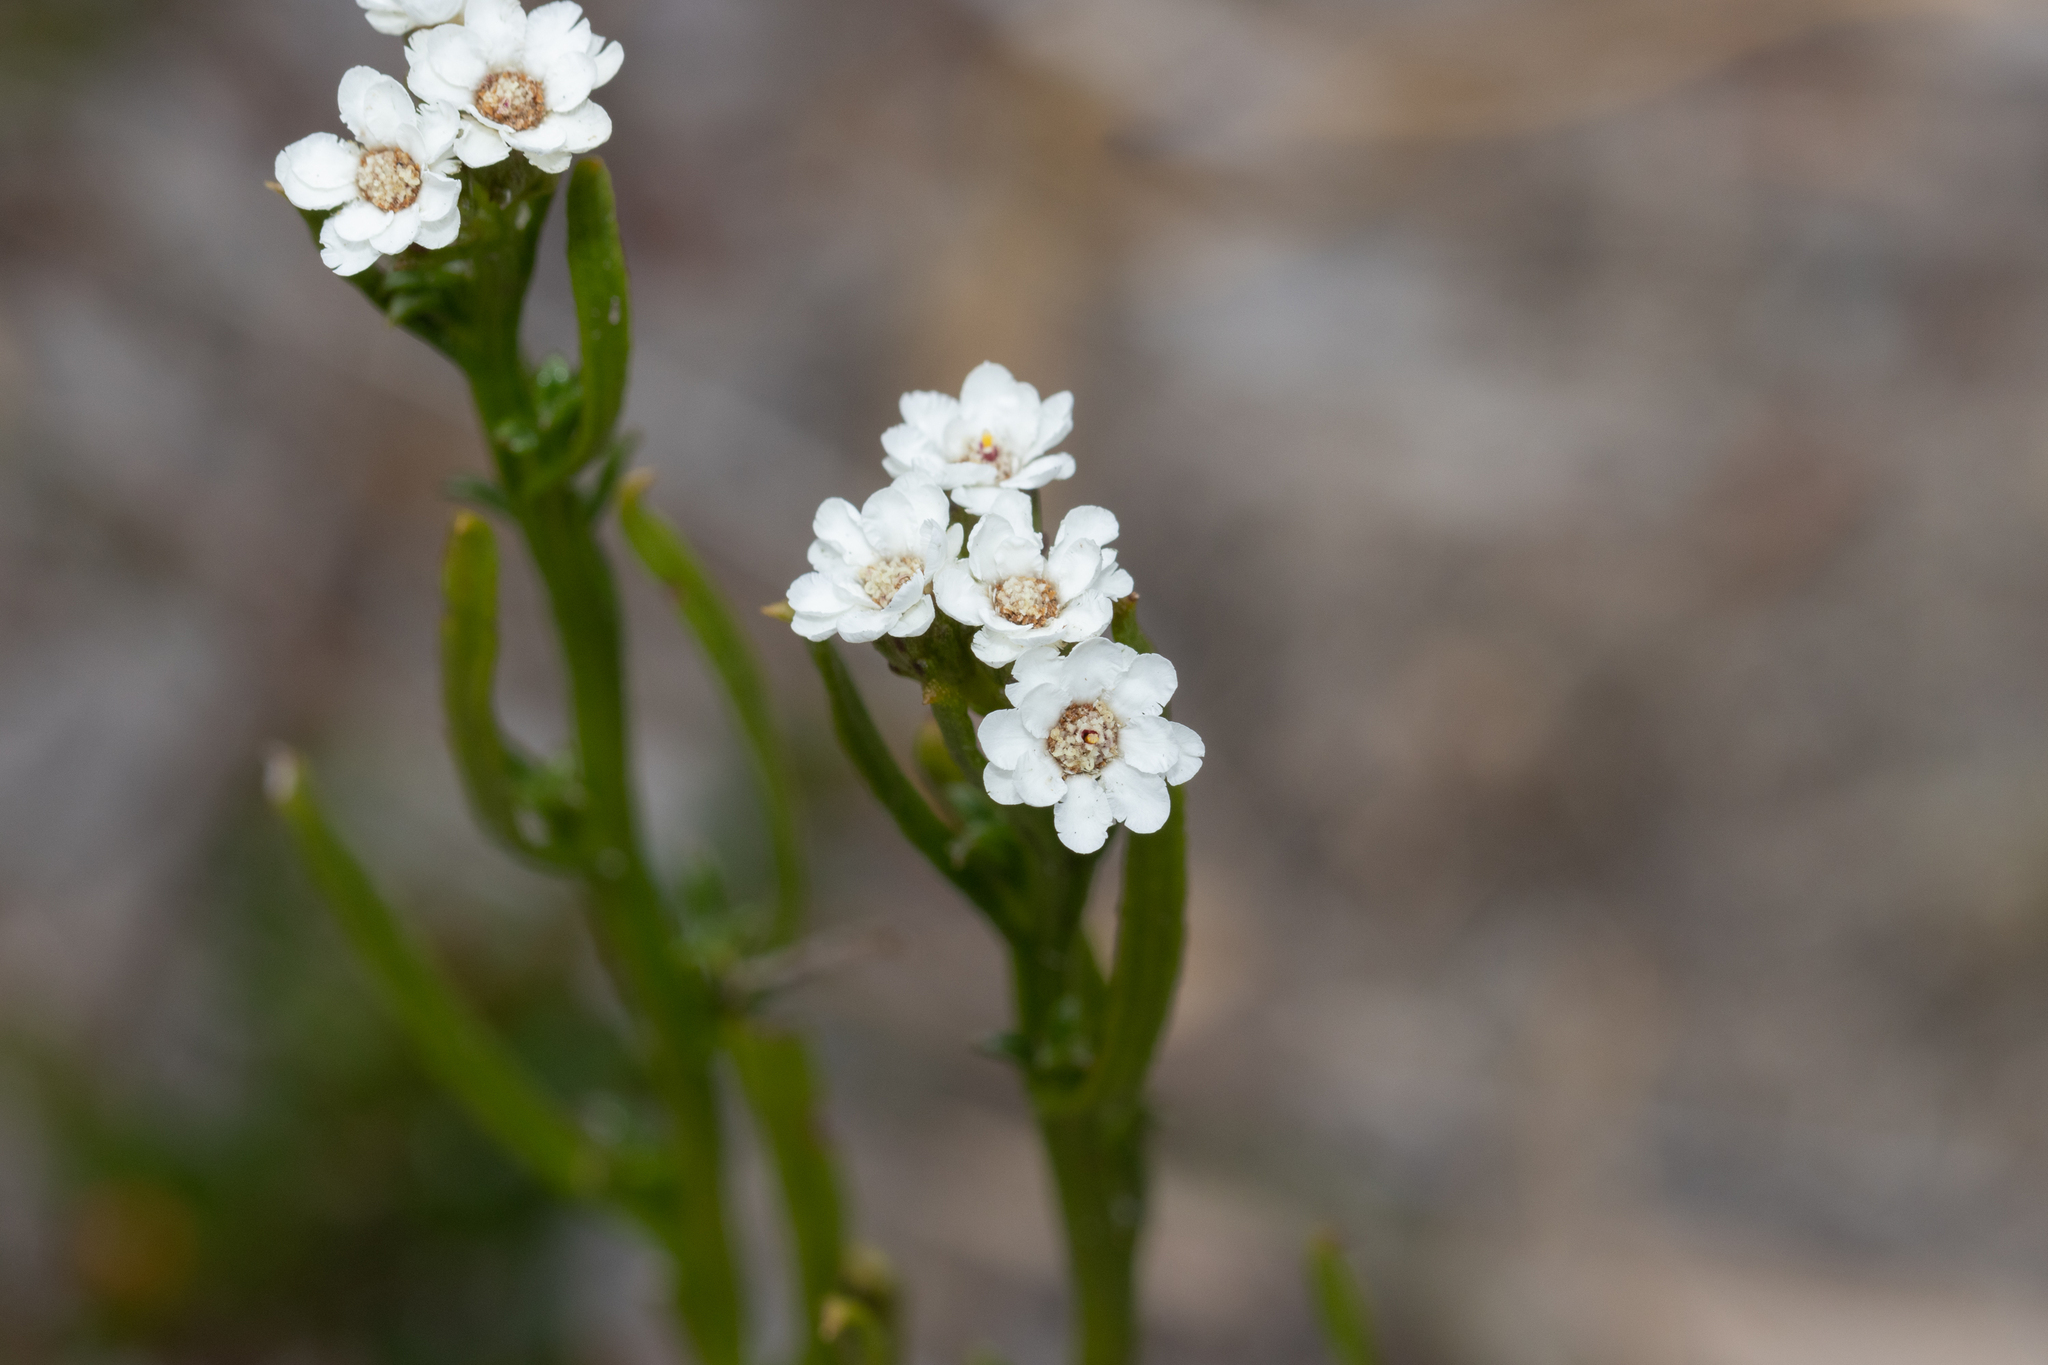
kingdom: Plantae
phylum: Tracheophyta
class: Magnoliopsida
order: Asterales
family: Asteraceae
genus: Ixodia
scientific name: Ixodia achillaeoides
